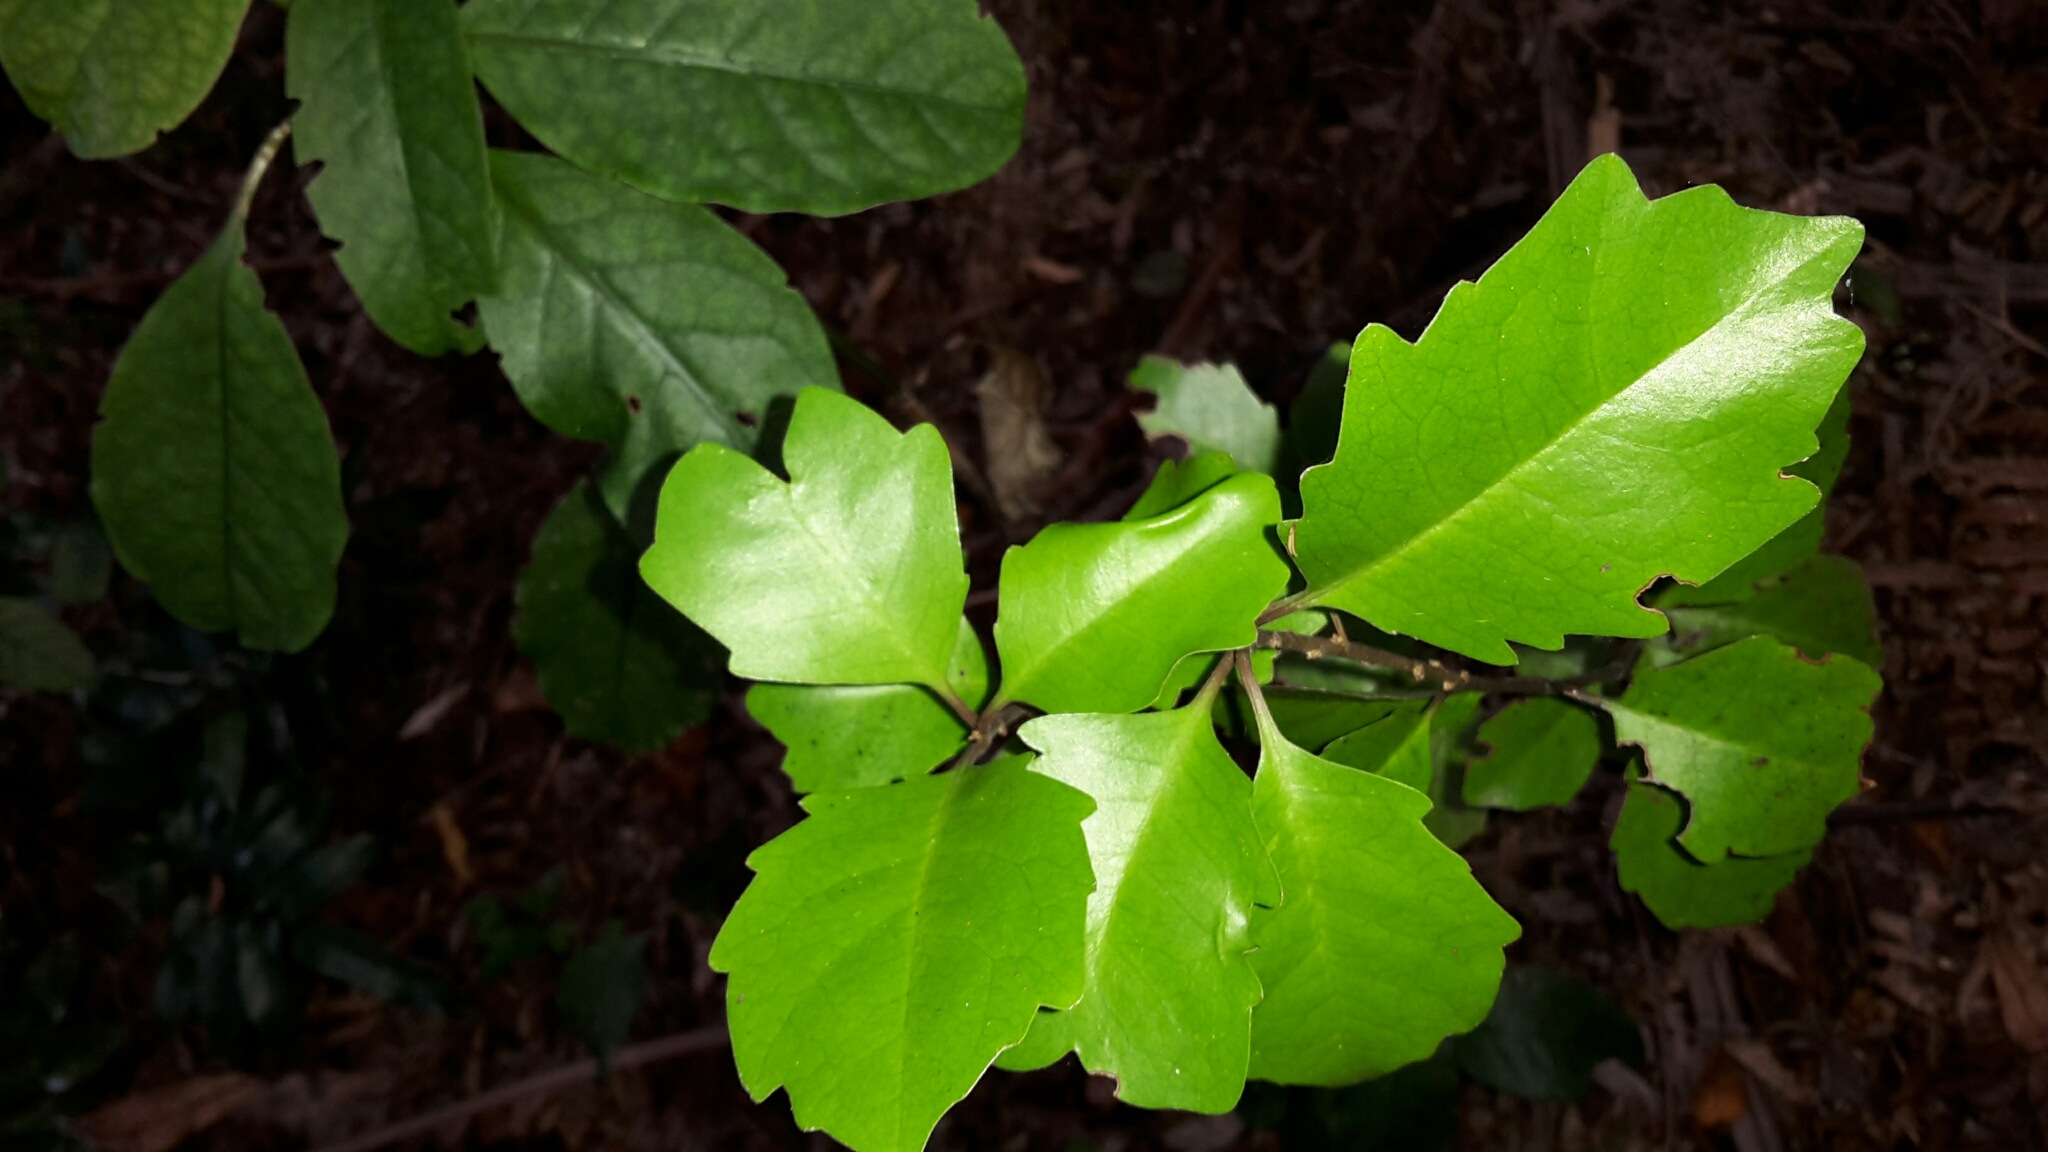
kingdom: Plantae
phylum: Tracheophyta
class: Magnoliopsida
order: Asterales
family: Alseuosmiaceae
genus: Alseuosmia
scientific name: Alseuosmia quercifolia
